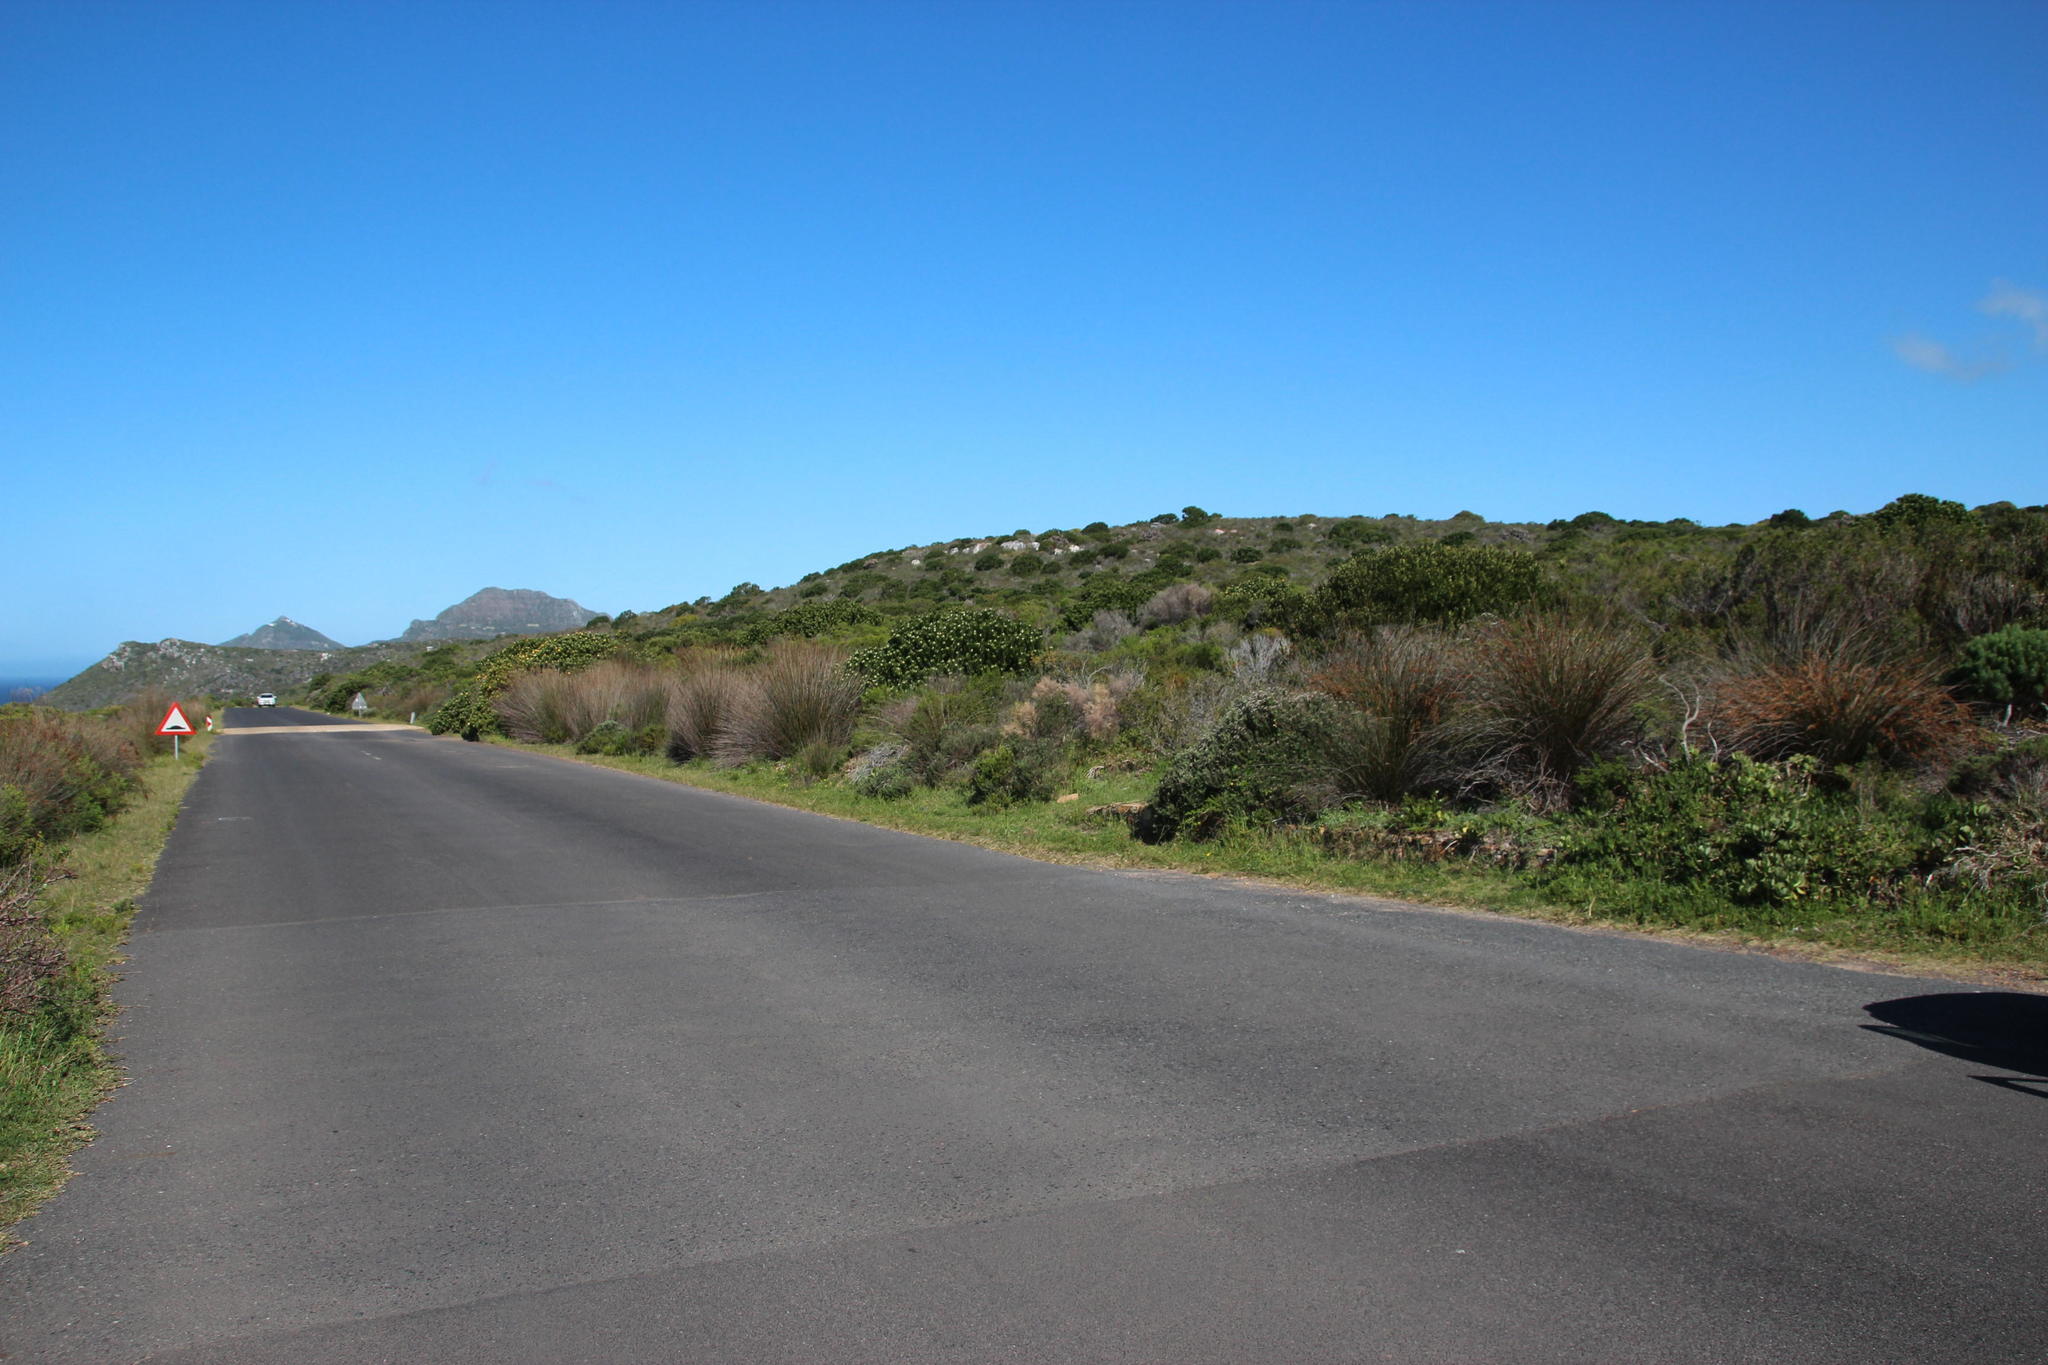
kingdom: Plantae
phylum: Tracheophyta
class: Liliopsida
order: Poales
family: Restionaceae
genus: Thamnochortus
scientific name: Thamnochortus insignis
